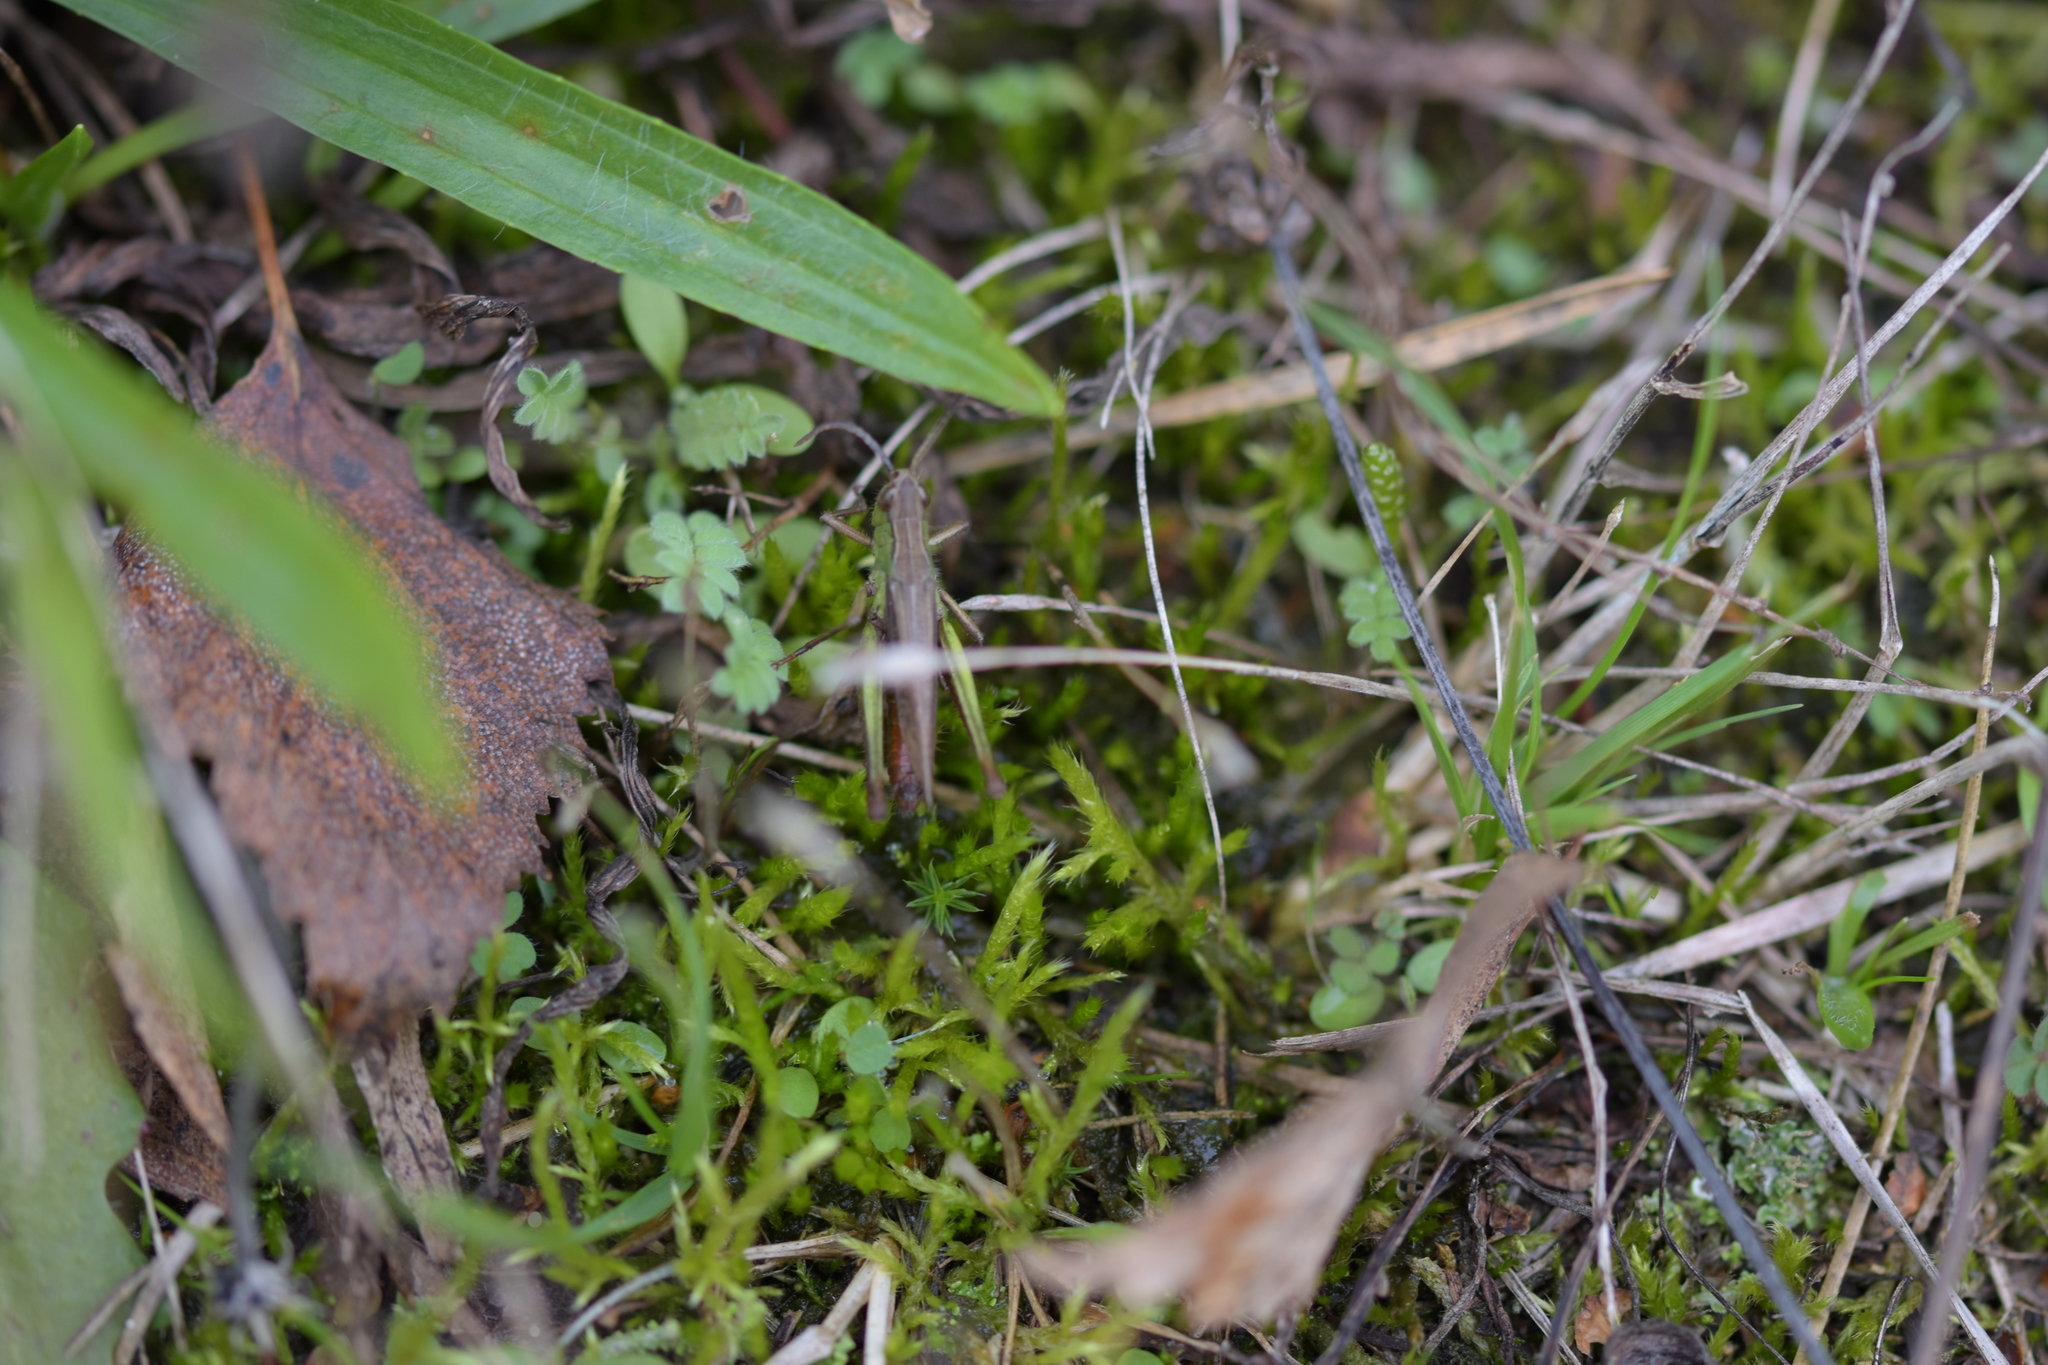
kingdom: Animalia
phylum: Arthropoda
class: Insecta
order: Orthoptera
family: Acrididae
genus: Chorthippus
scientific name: Chorthippus dorsatus
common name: Steppe grasshopper
